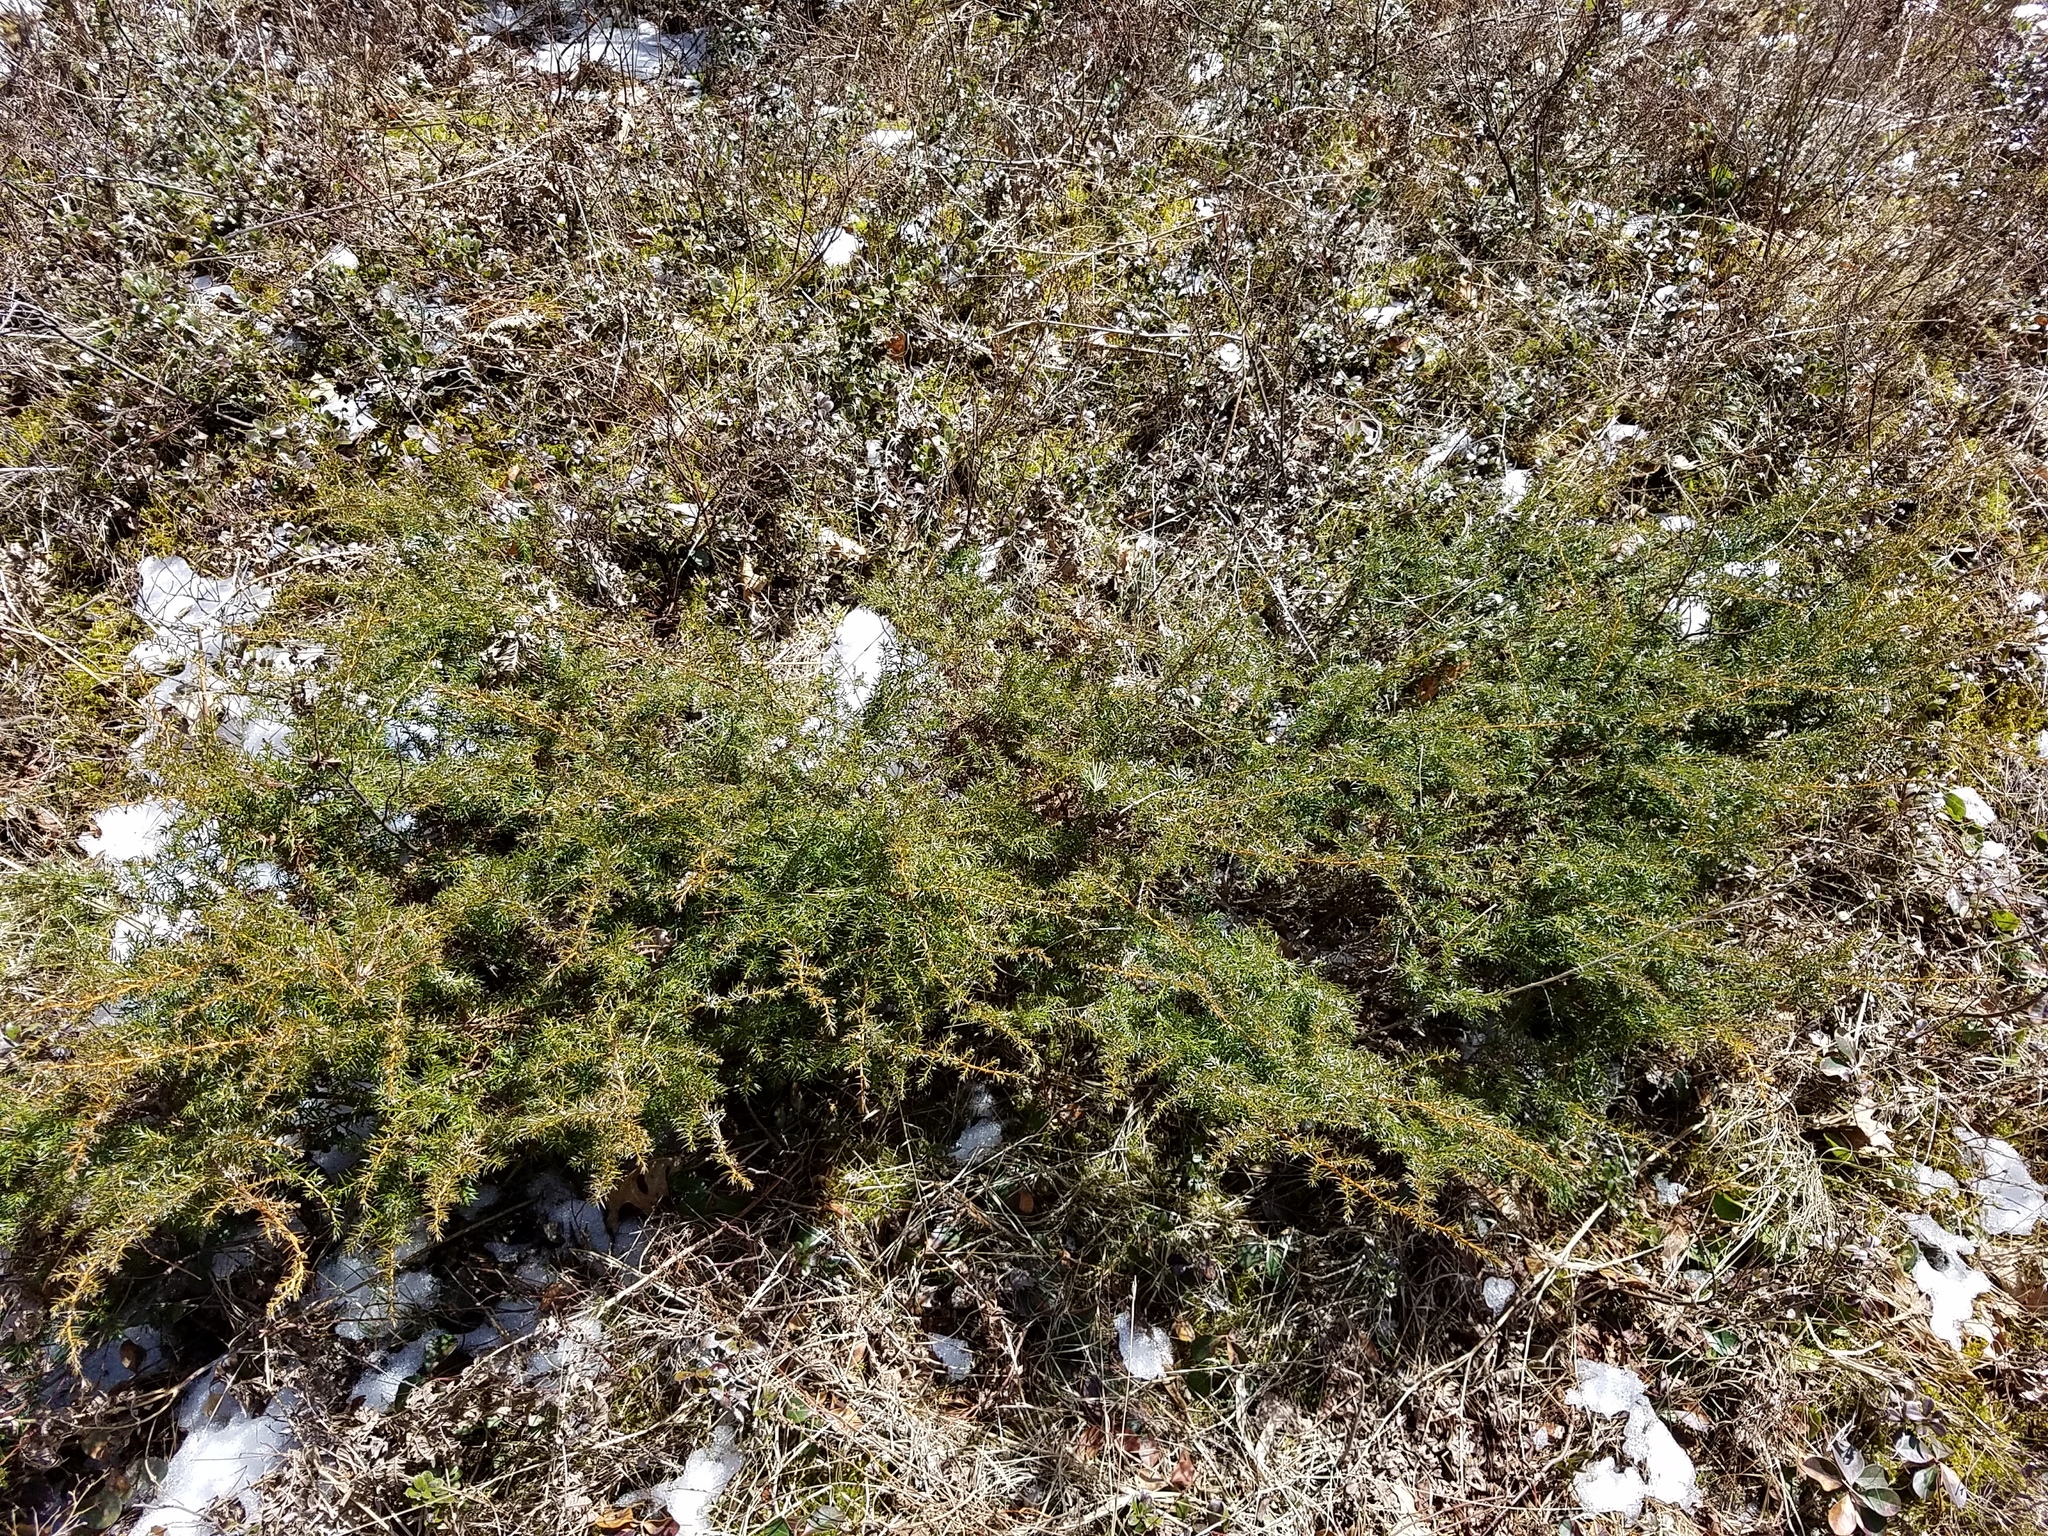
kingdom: Plantae
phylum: Tracheophyta
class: Pinopsida
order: Pinales
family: Cupressaceae
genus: Juniperus
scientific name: Juniperus communis
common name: Common juniper
